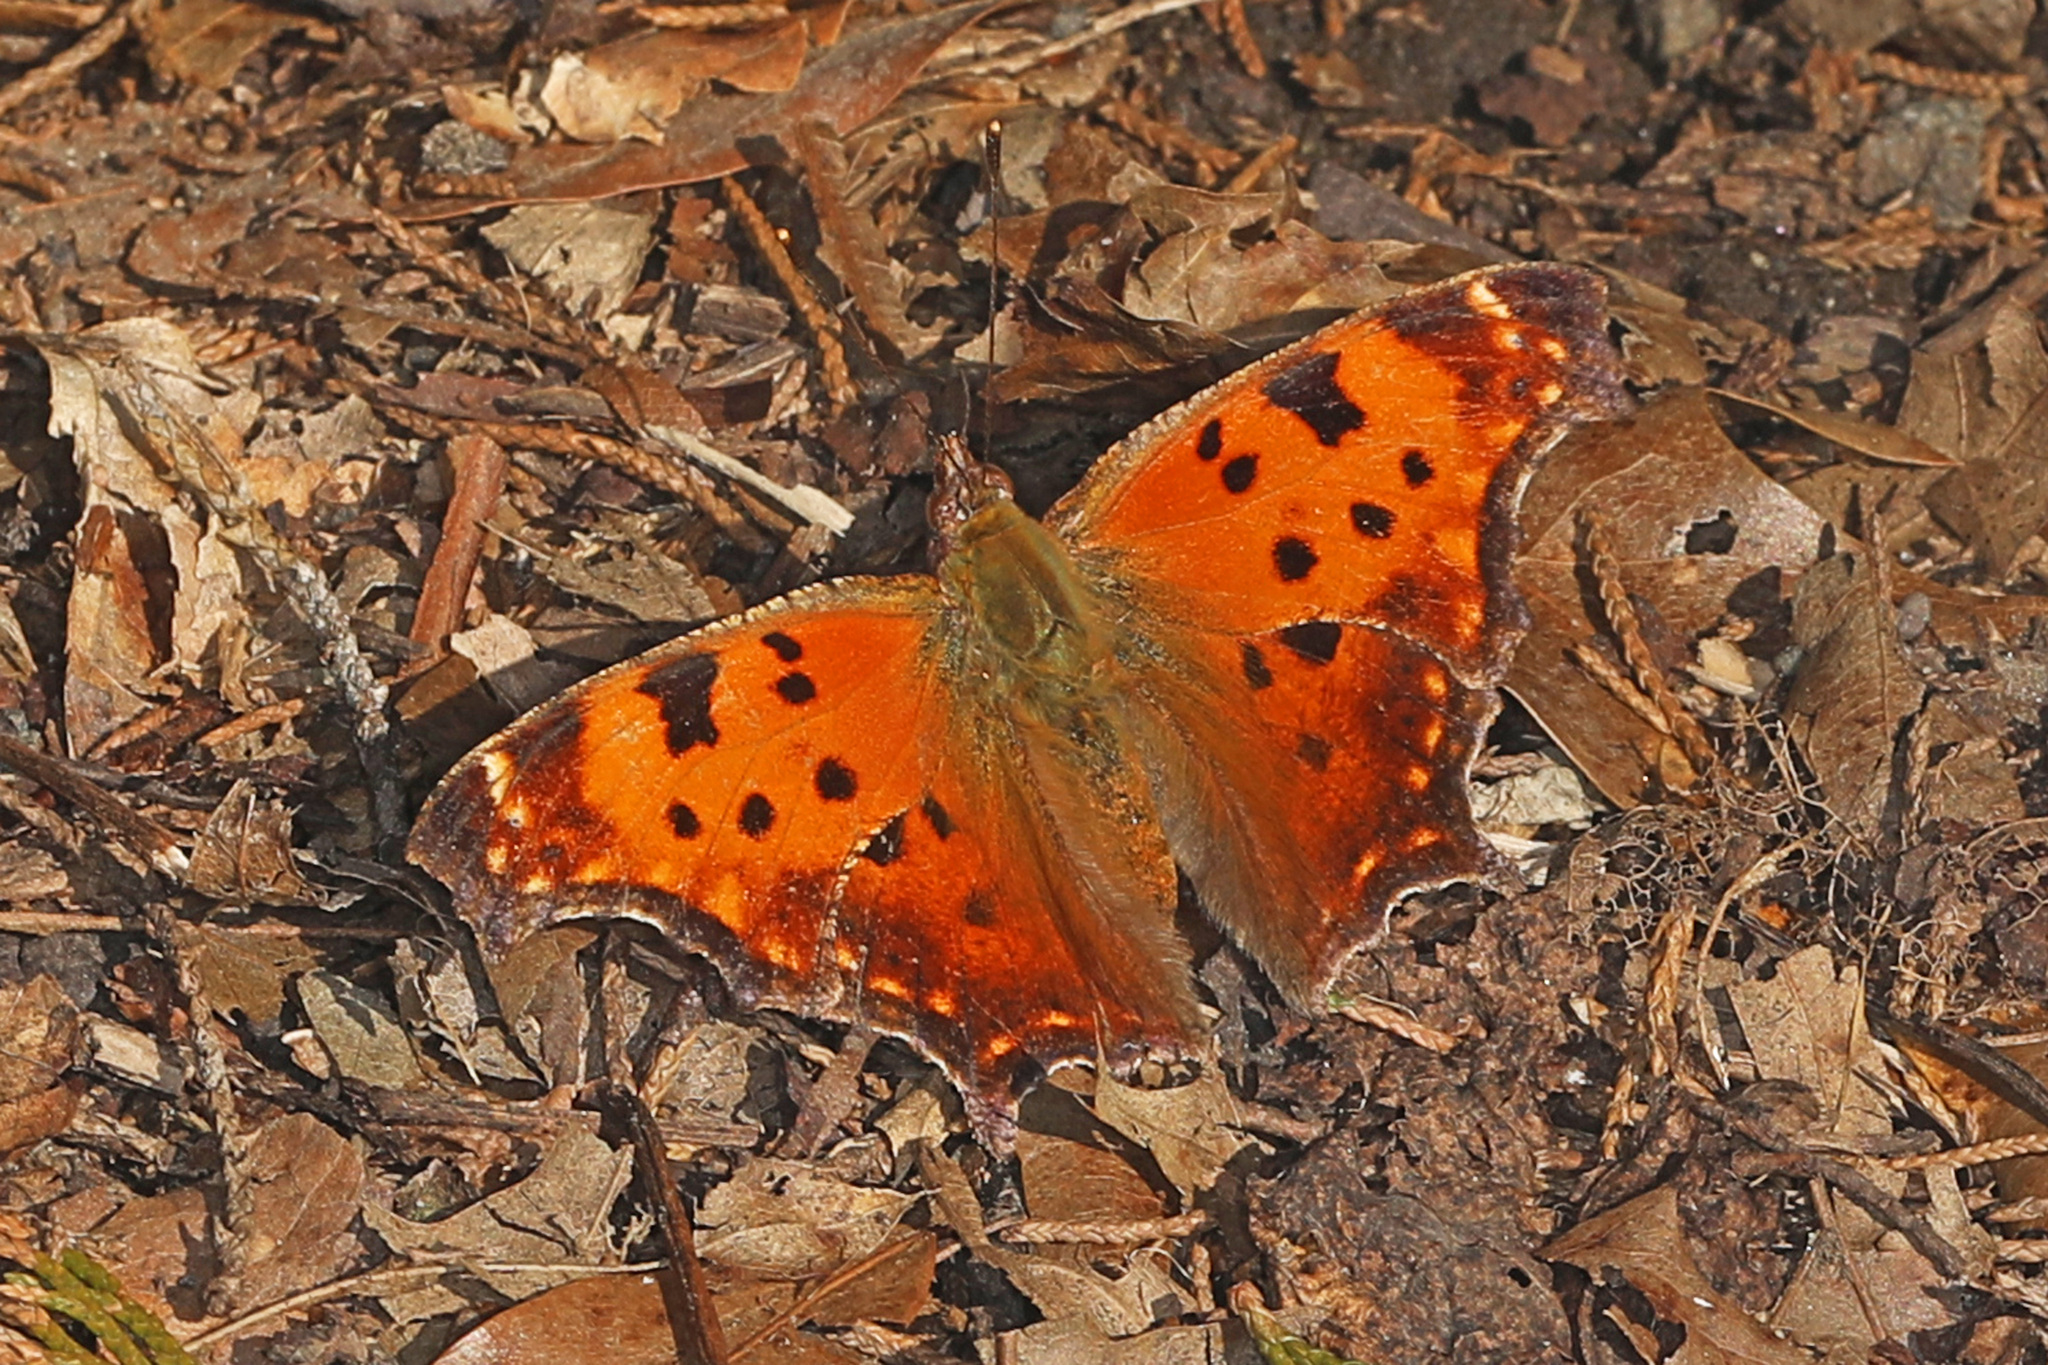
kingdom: Animalia
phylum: Arthropoda
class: Insecta
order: Lepidoptera
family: Nymphalidae
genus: Polygonia
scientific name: Polygonia comma
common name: Eastern comma
